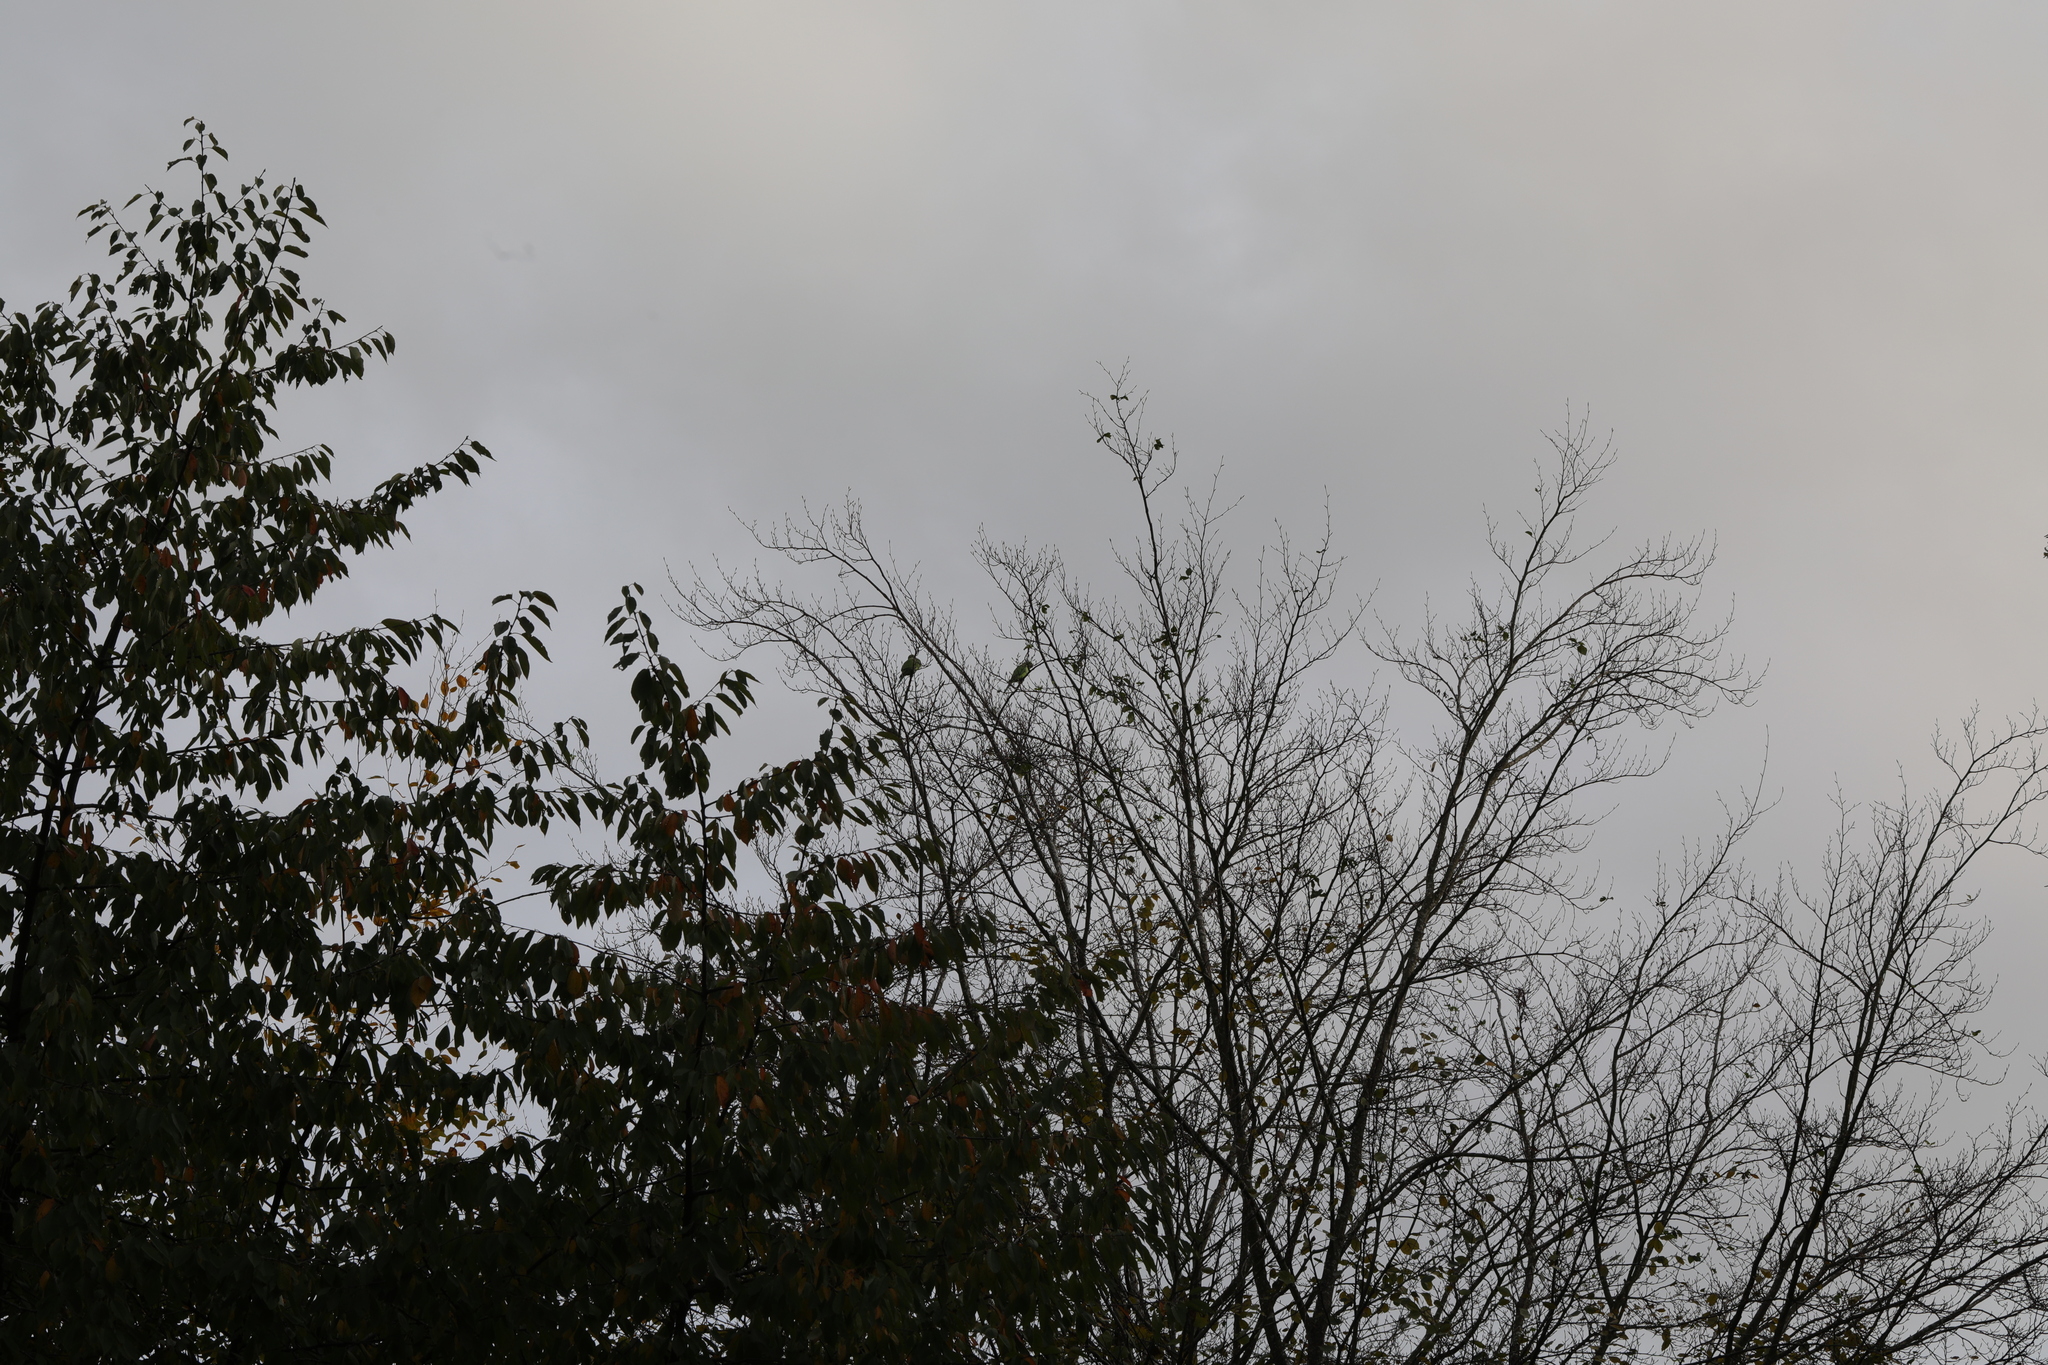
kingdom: Animalia
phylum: Chordata
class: Aves
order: Psittaciformes
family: Psittacidae
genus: Psittacula
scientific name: Psittacula krameri
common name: Rose-ringed parakeet
